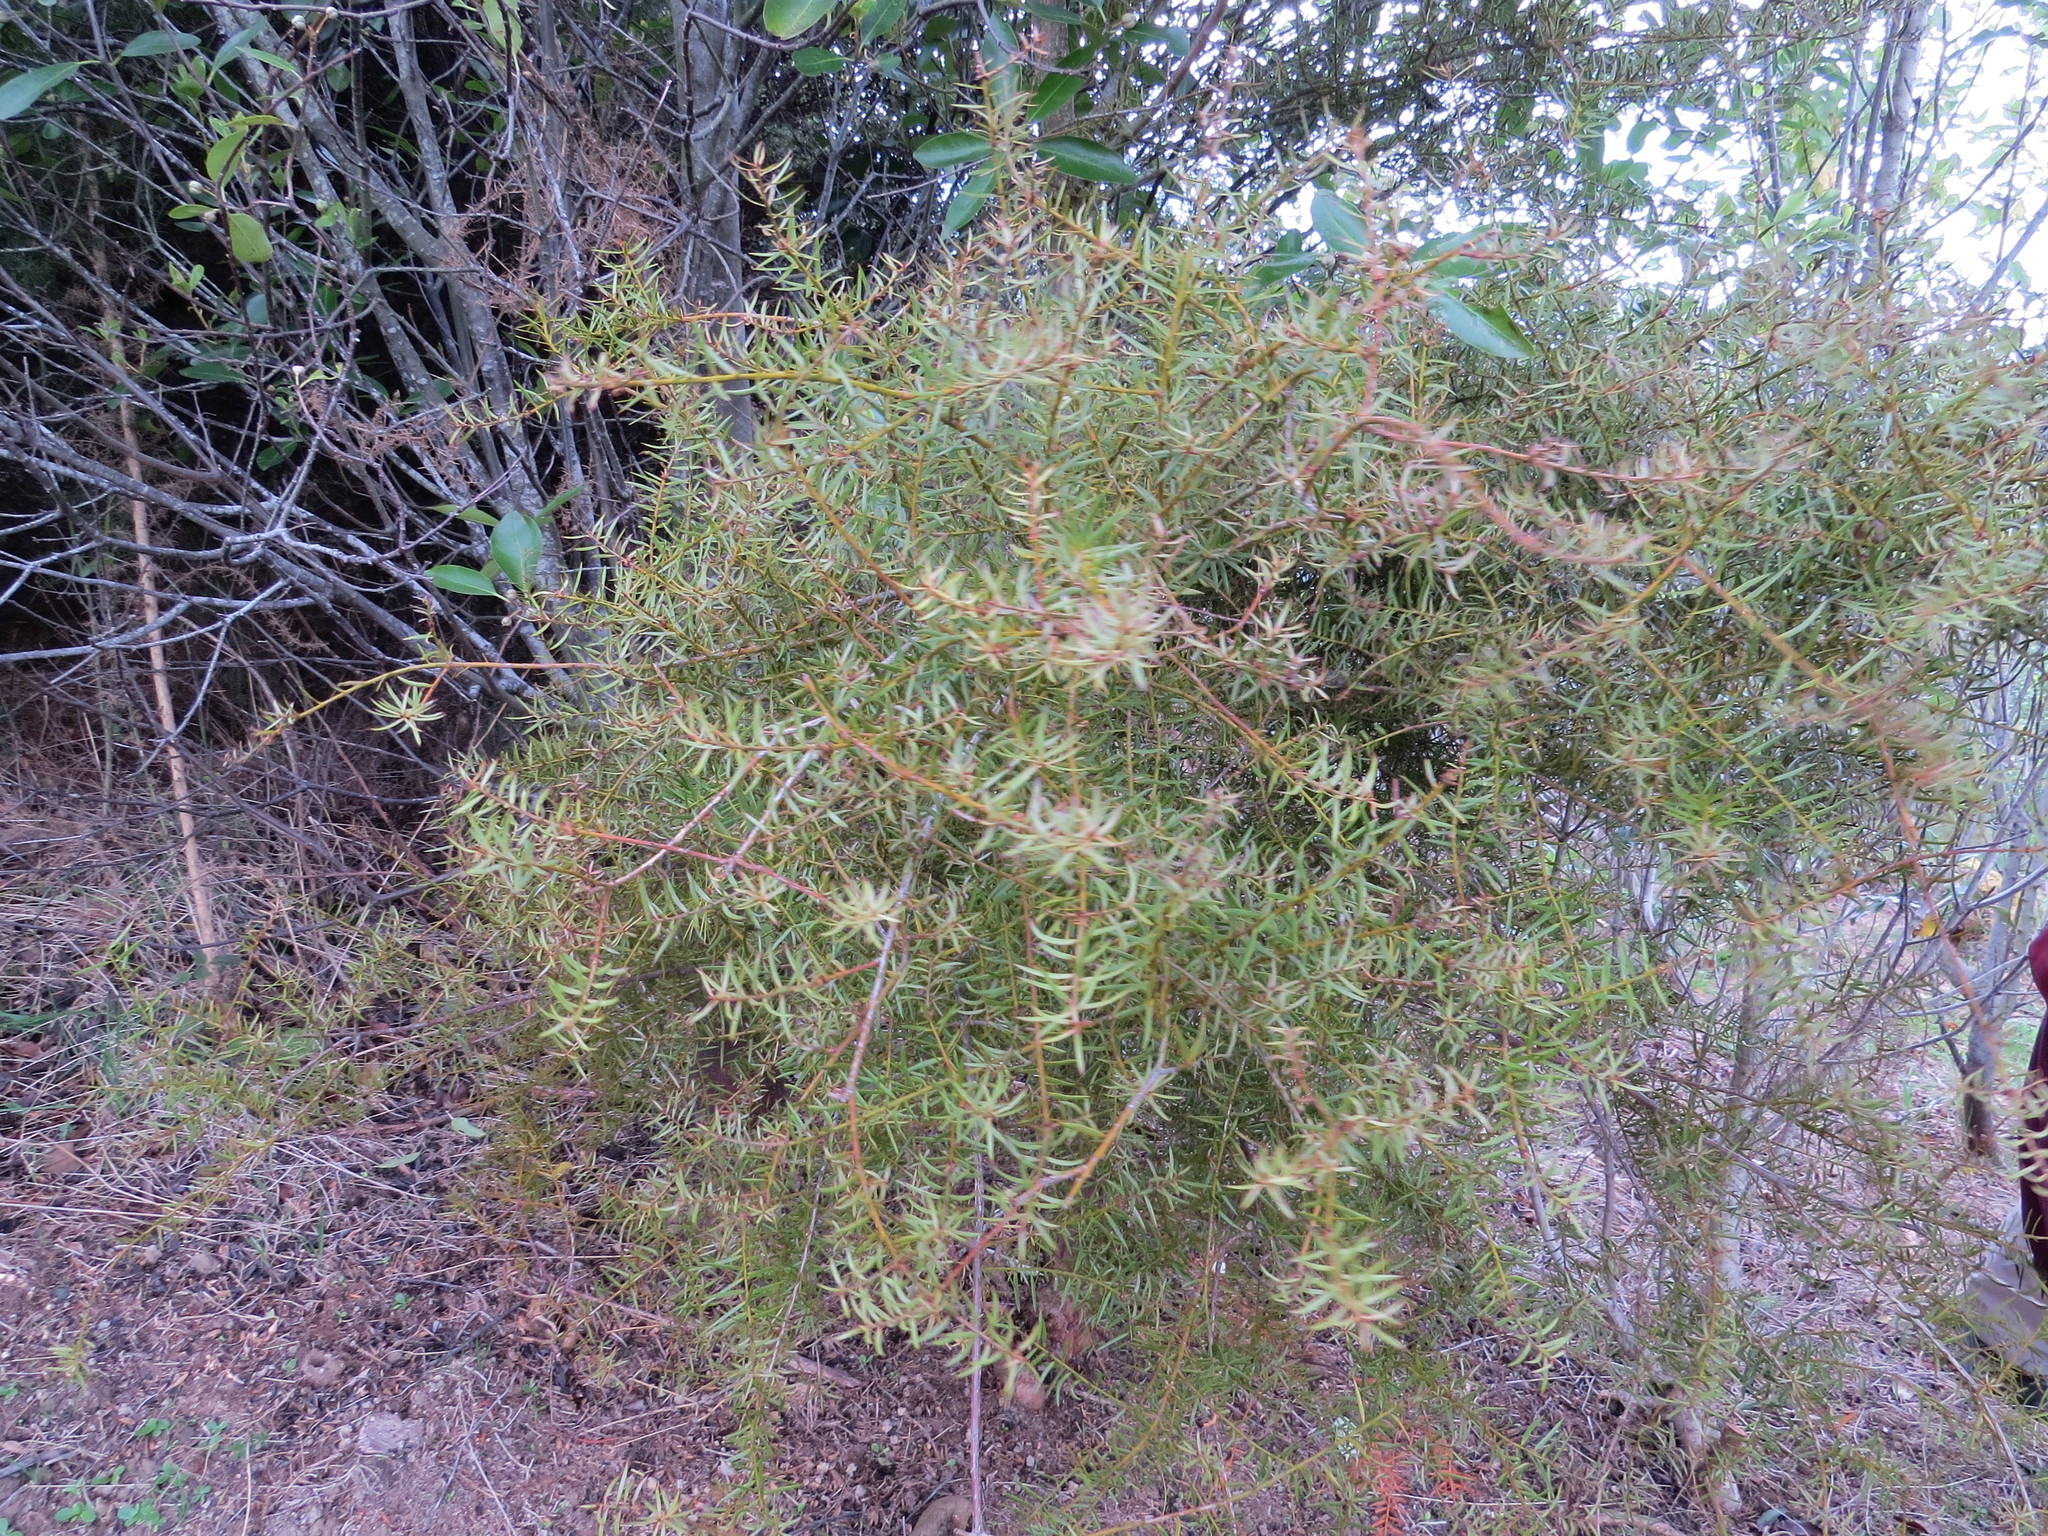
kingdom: Plantae
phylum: Tracheophyta
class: Pinopsida
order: Pinales
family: Podocarpaceae
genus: Podocarpus
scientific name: Podocarpus totara
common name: Totara
